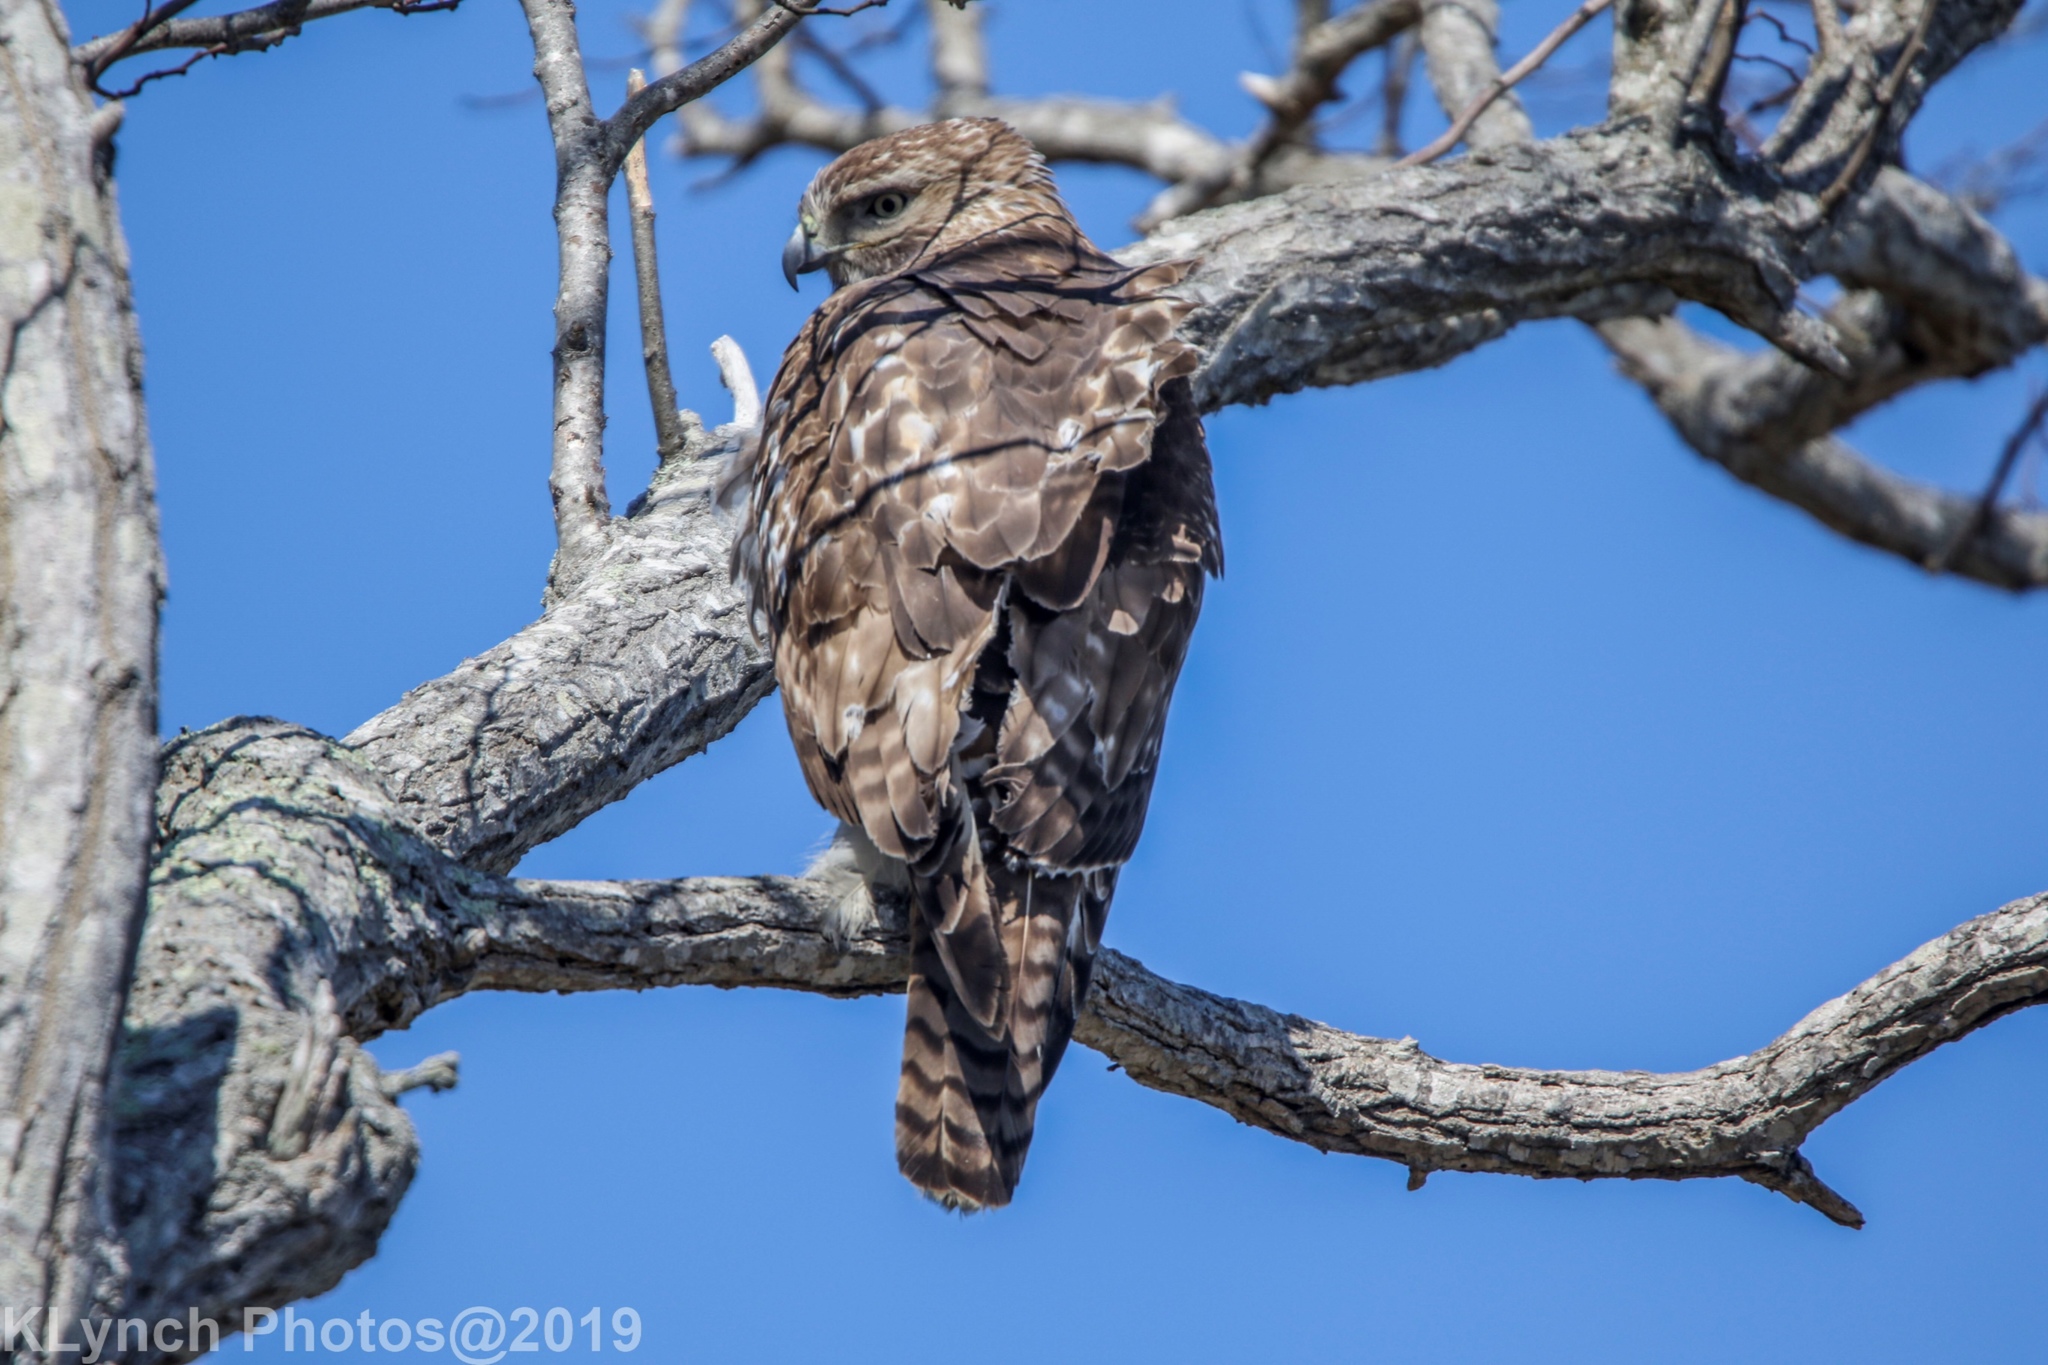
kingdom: Animalia
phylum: Chordata
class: Aves
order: Accipitriformes
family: Accipitridae
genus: Buteo
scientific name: Buteo jamaicensis
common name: Red-tailed hawk
